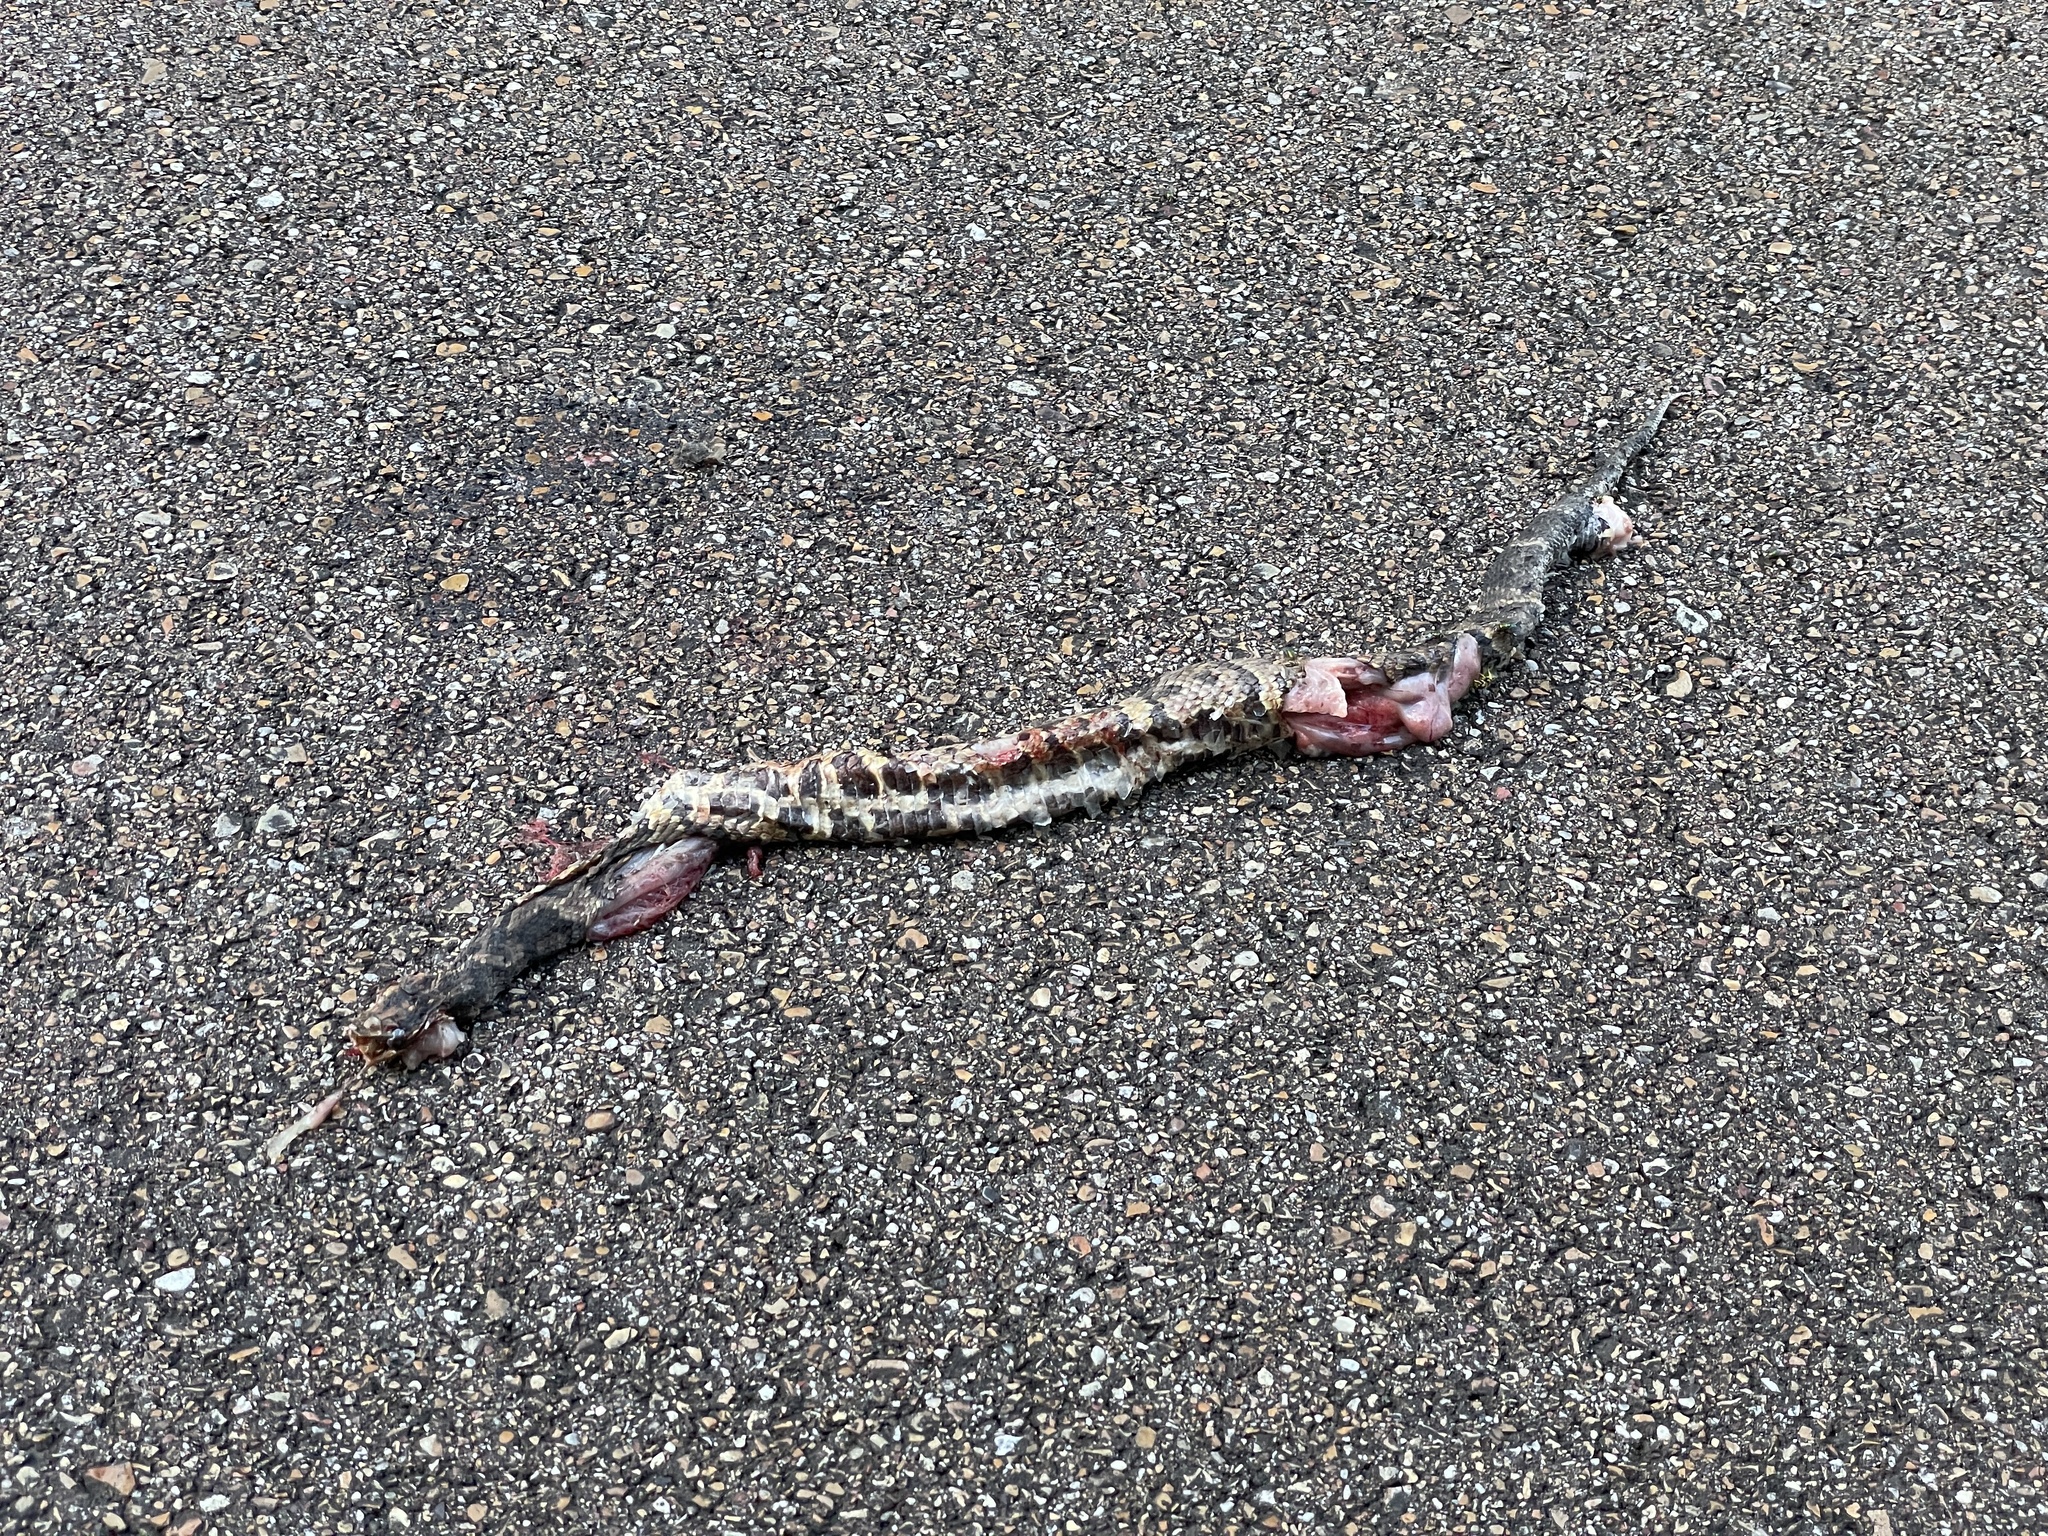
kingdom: Animalia
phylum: Chordata
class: Squamata
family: Viperidae
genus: Agkistrodon
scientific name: Agkistrodon piscivorus
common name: Cottonmouth
